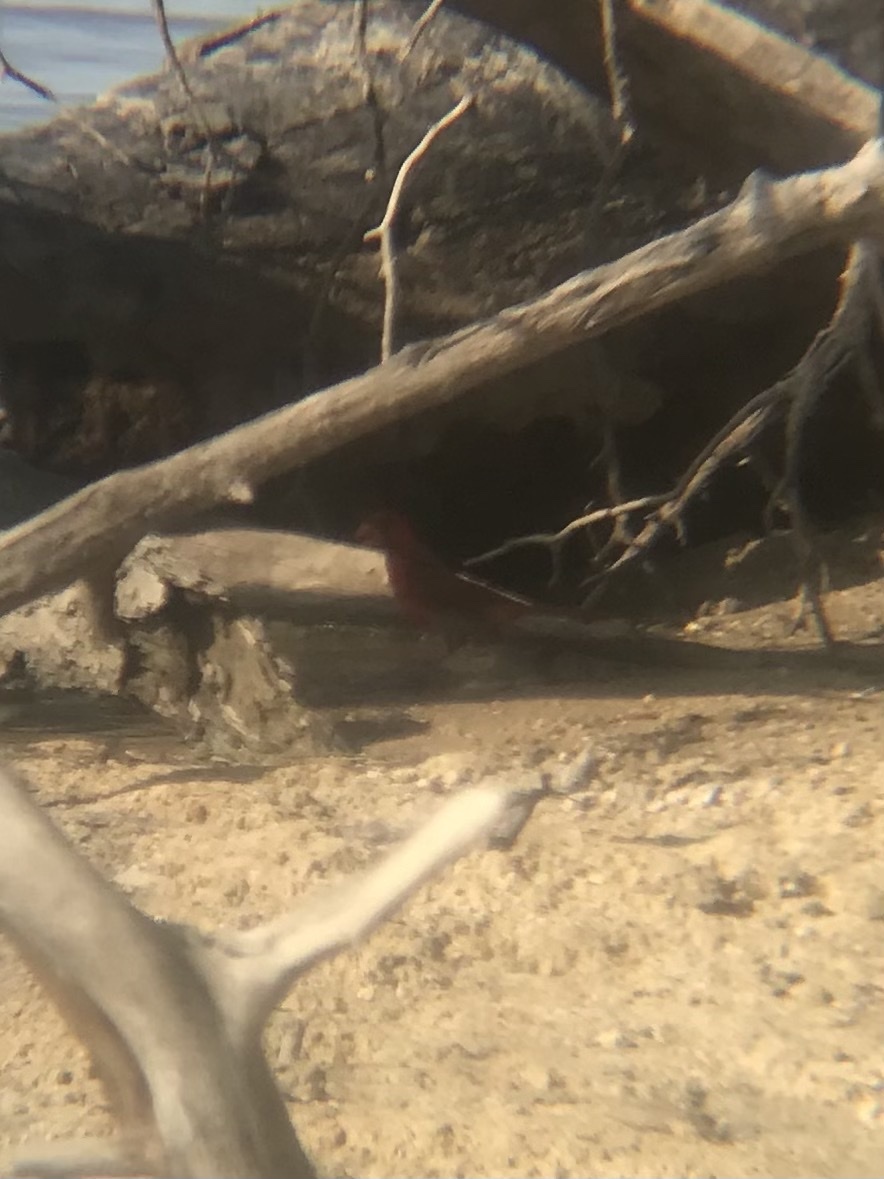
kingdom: Animalia
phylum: Chordata
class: Aves
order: Passeriformes
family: Cardinalidae
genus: Cardinalis
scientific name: Cardinalis cardinalis
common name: Northern cardinal
